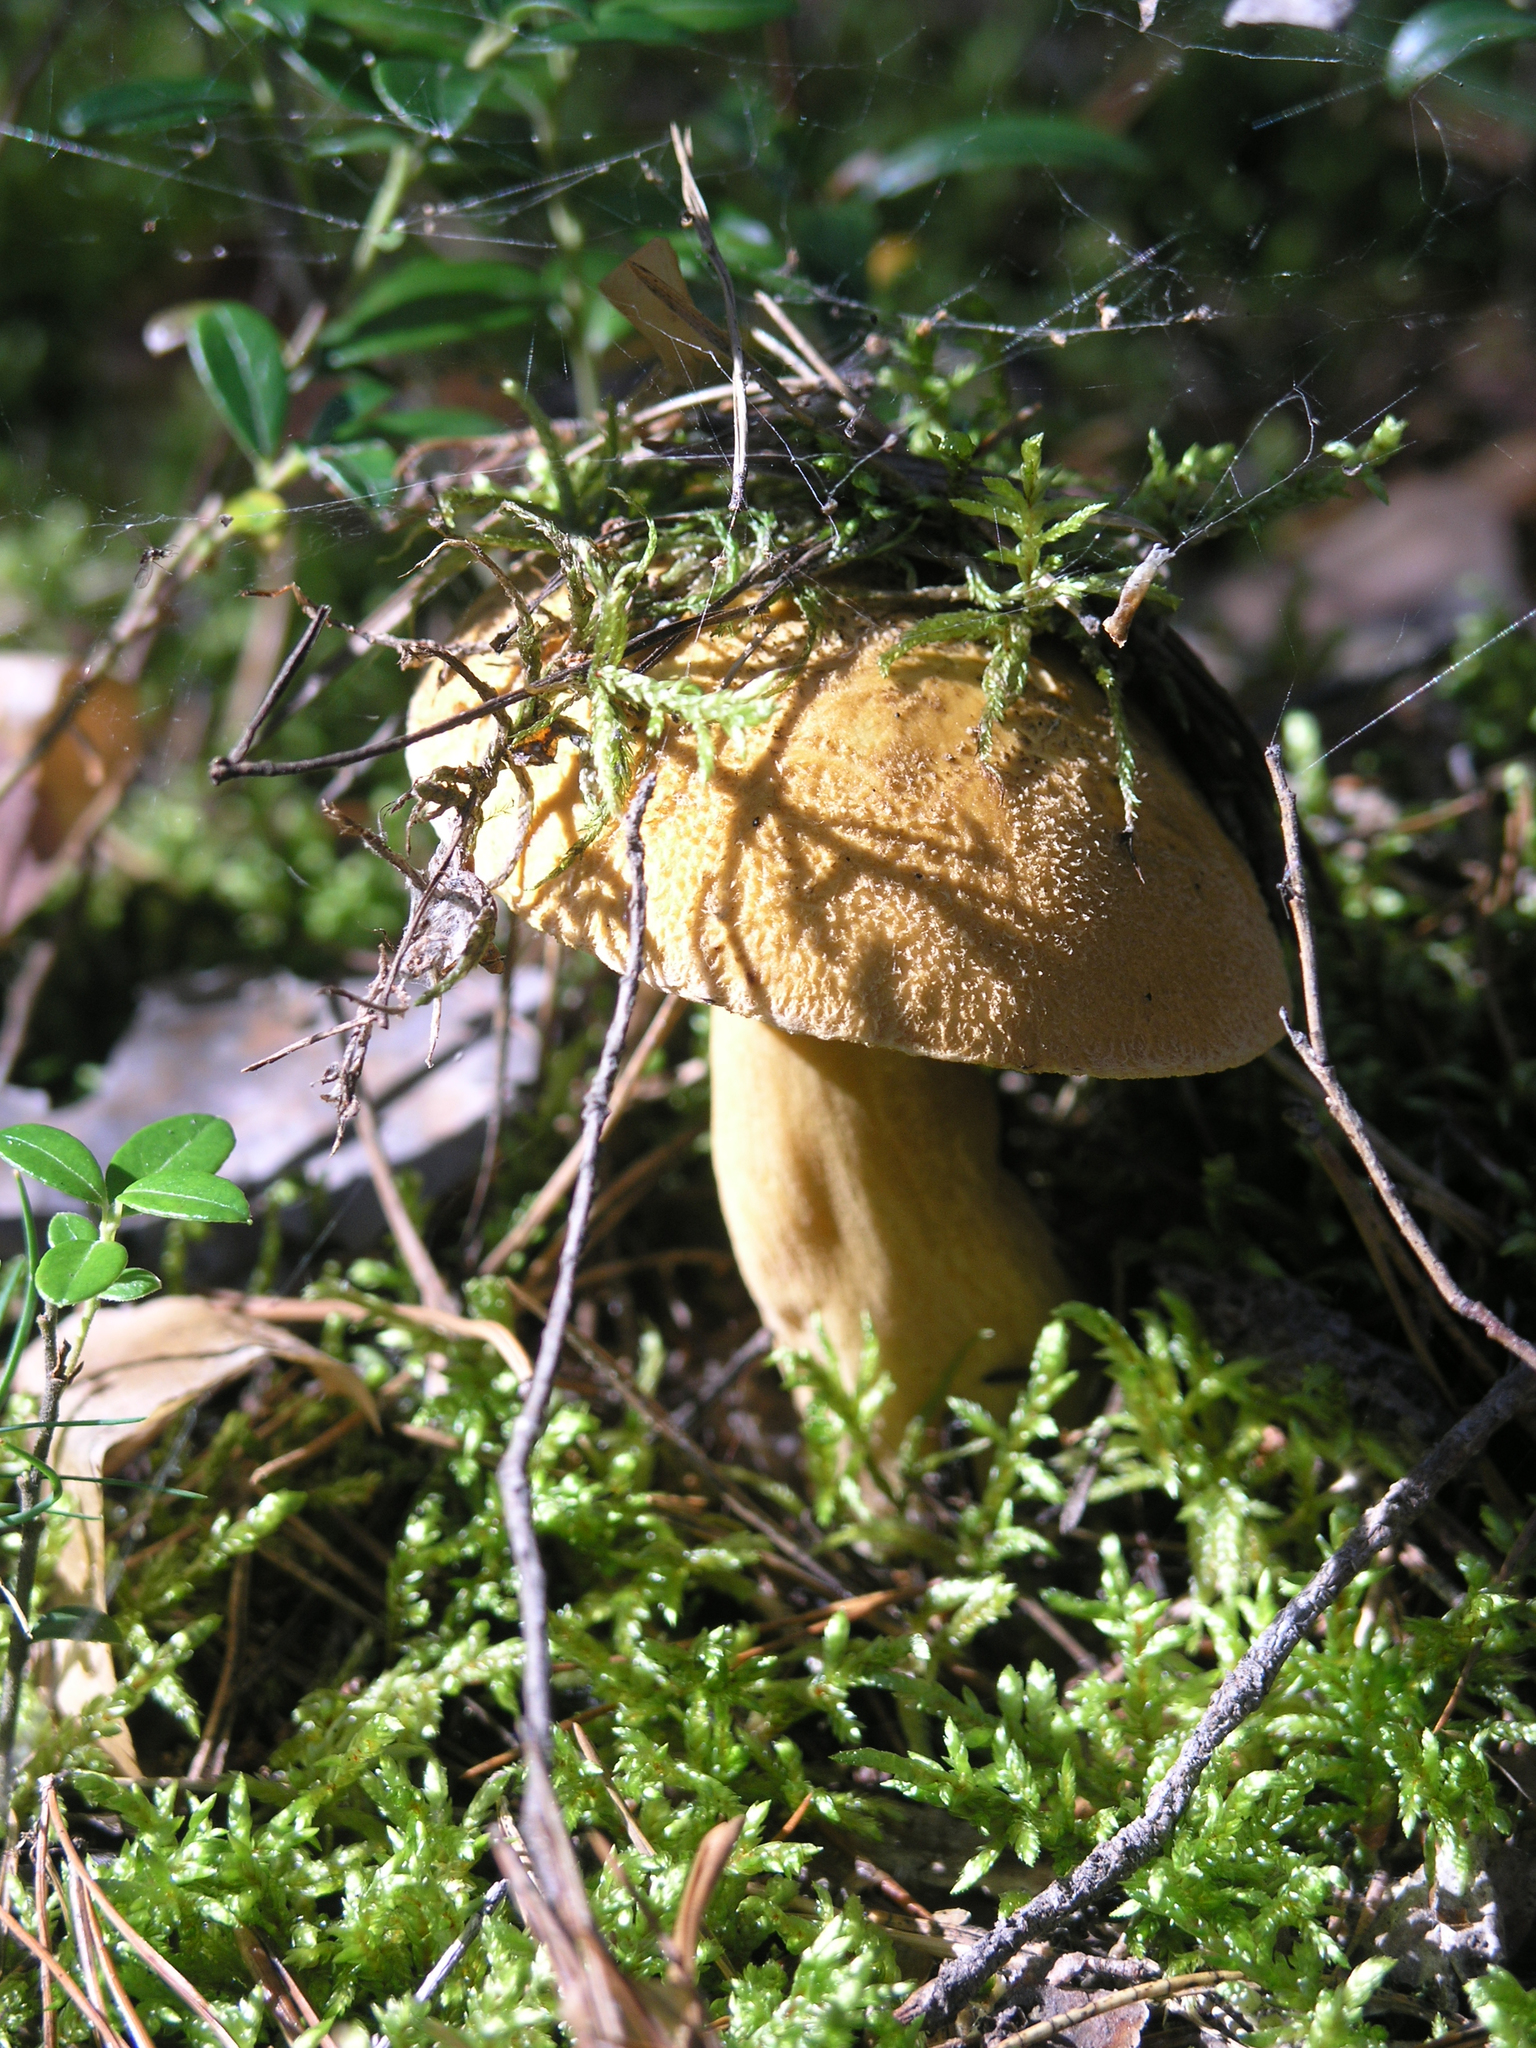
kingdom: Fungi
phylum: Basidiomycota
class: Agaricomycetes
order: Boletales
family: Suillaceae
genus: Suillus
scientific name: Suillus variegatus
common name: Velvet bolete
